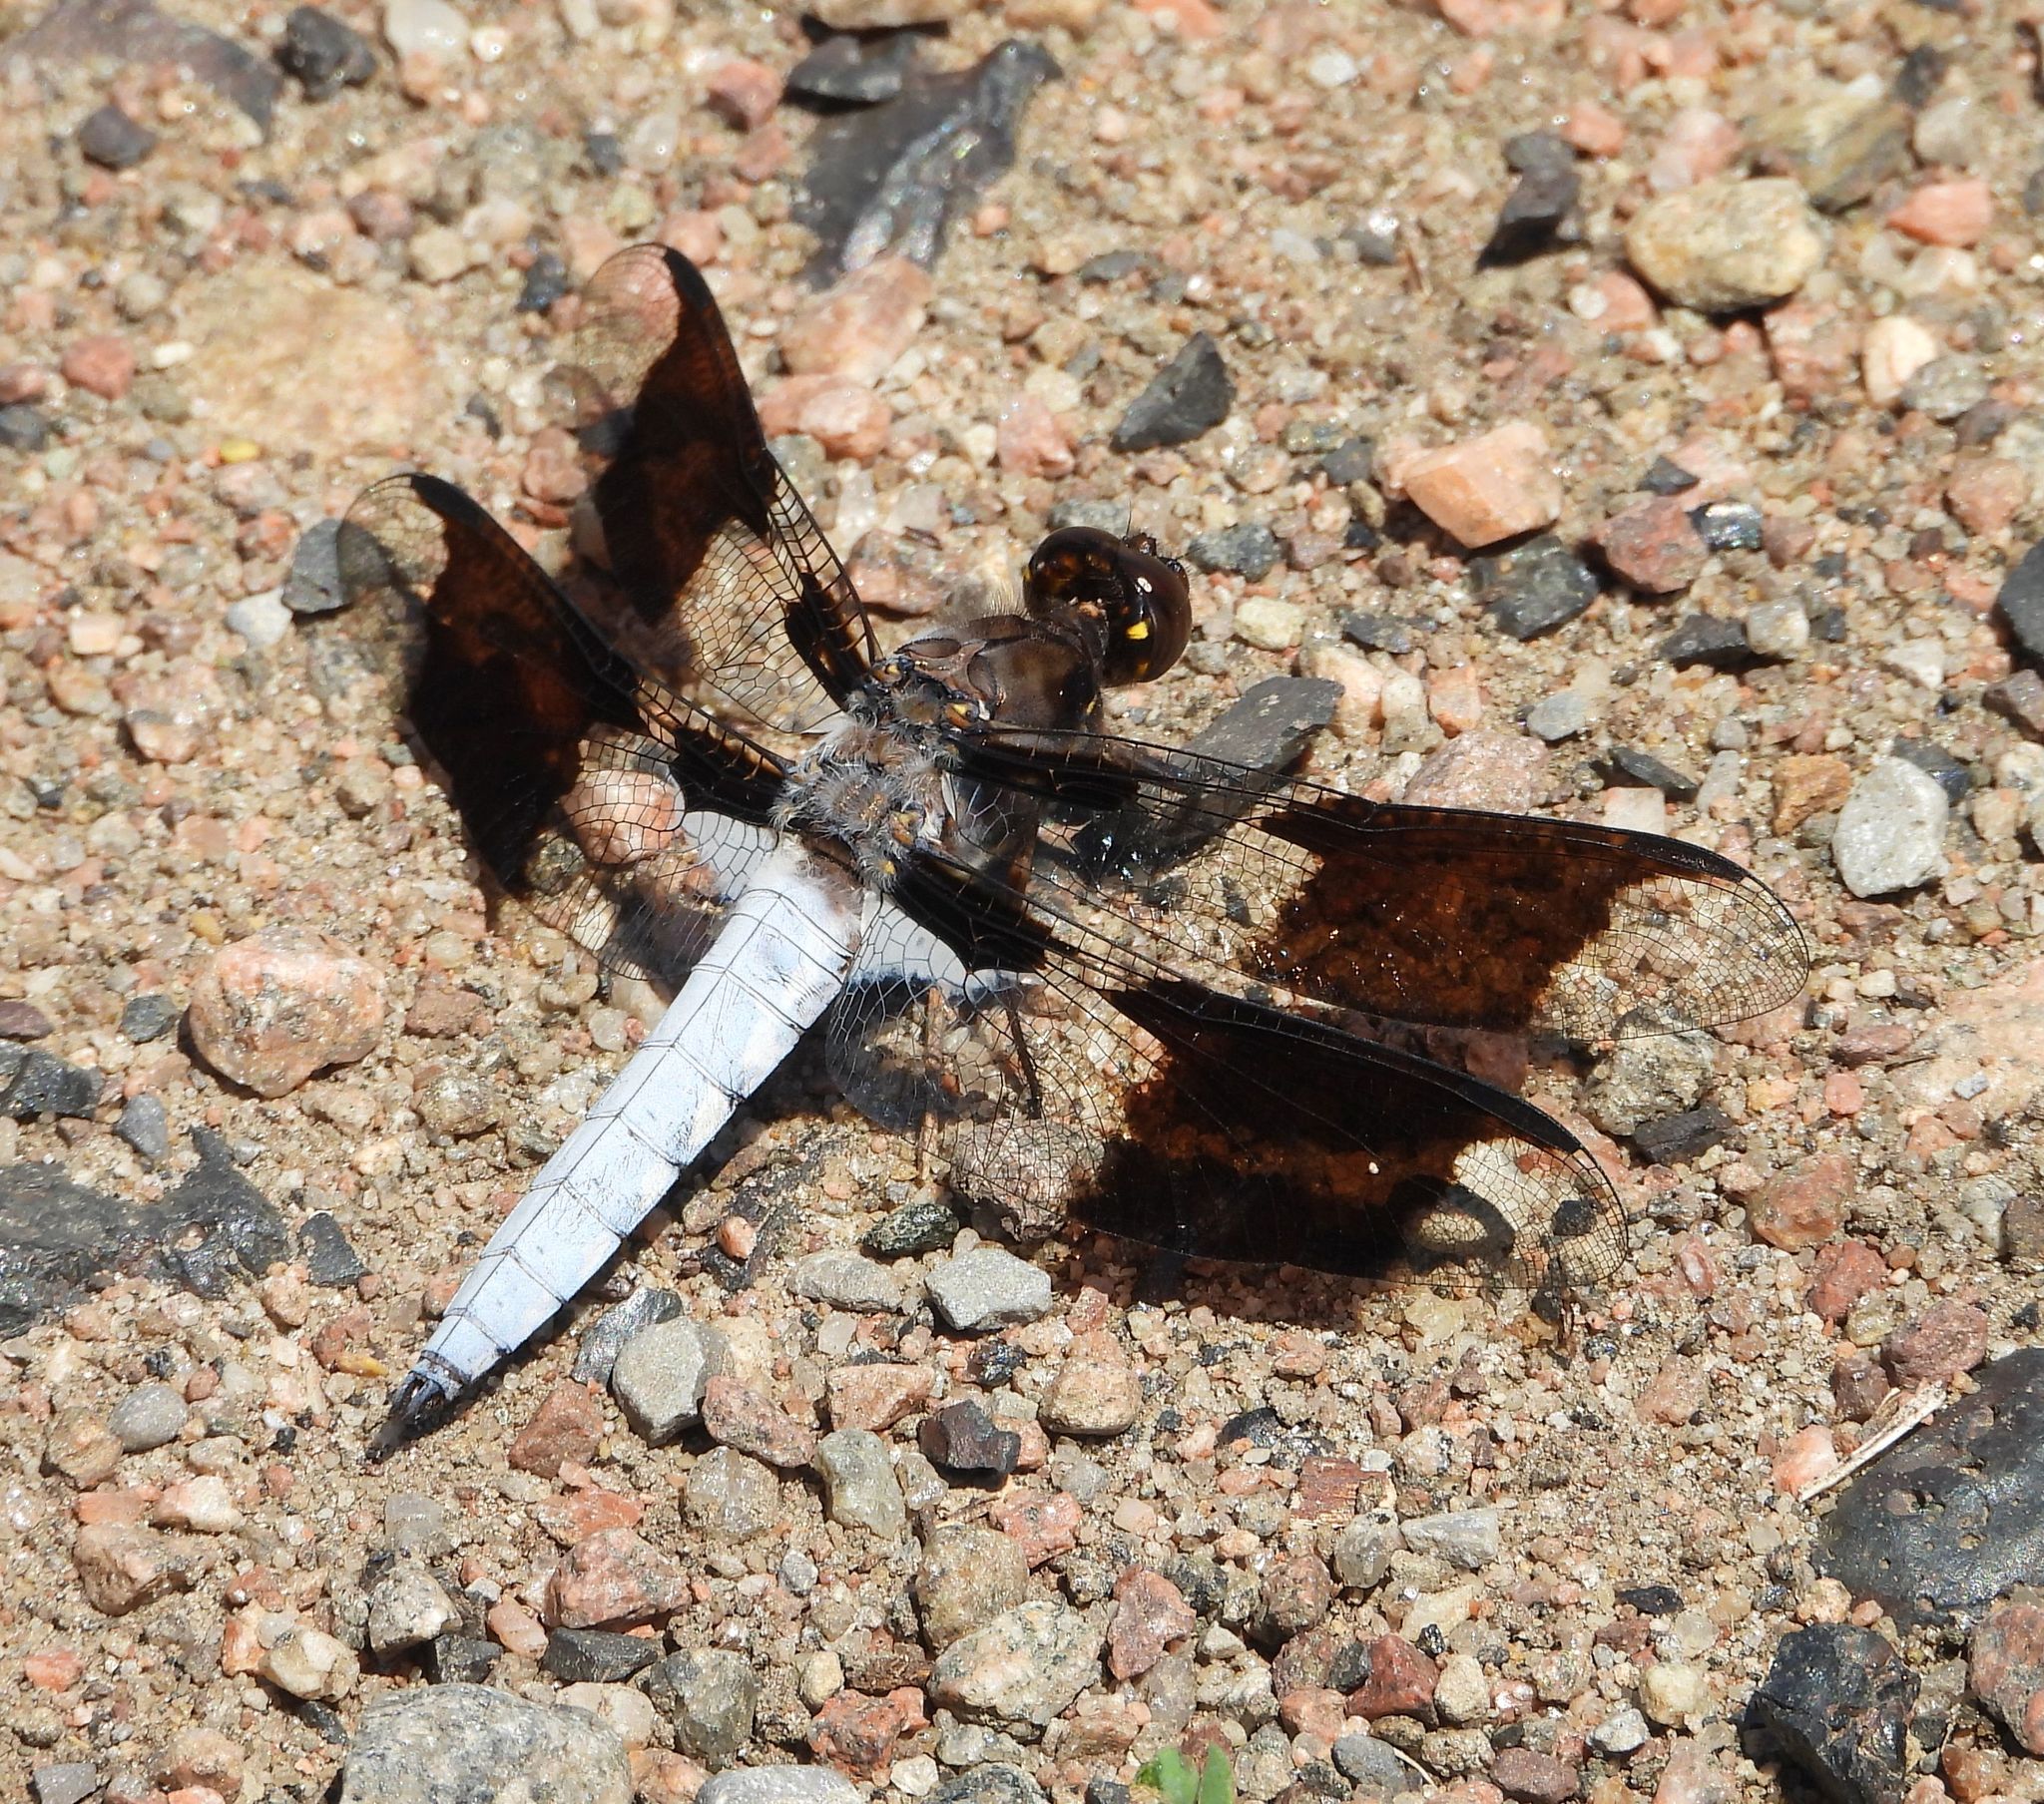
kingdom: Animalia
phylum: Arthropoda
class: Insecta
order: Odonata
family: Libellulidae
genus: Plathemis
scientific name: Plathemis lydia
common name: Common whitetail
